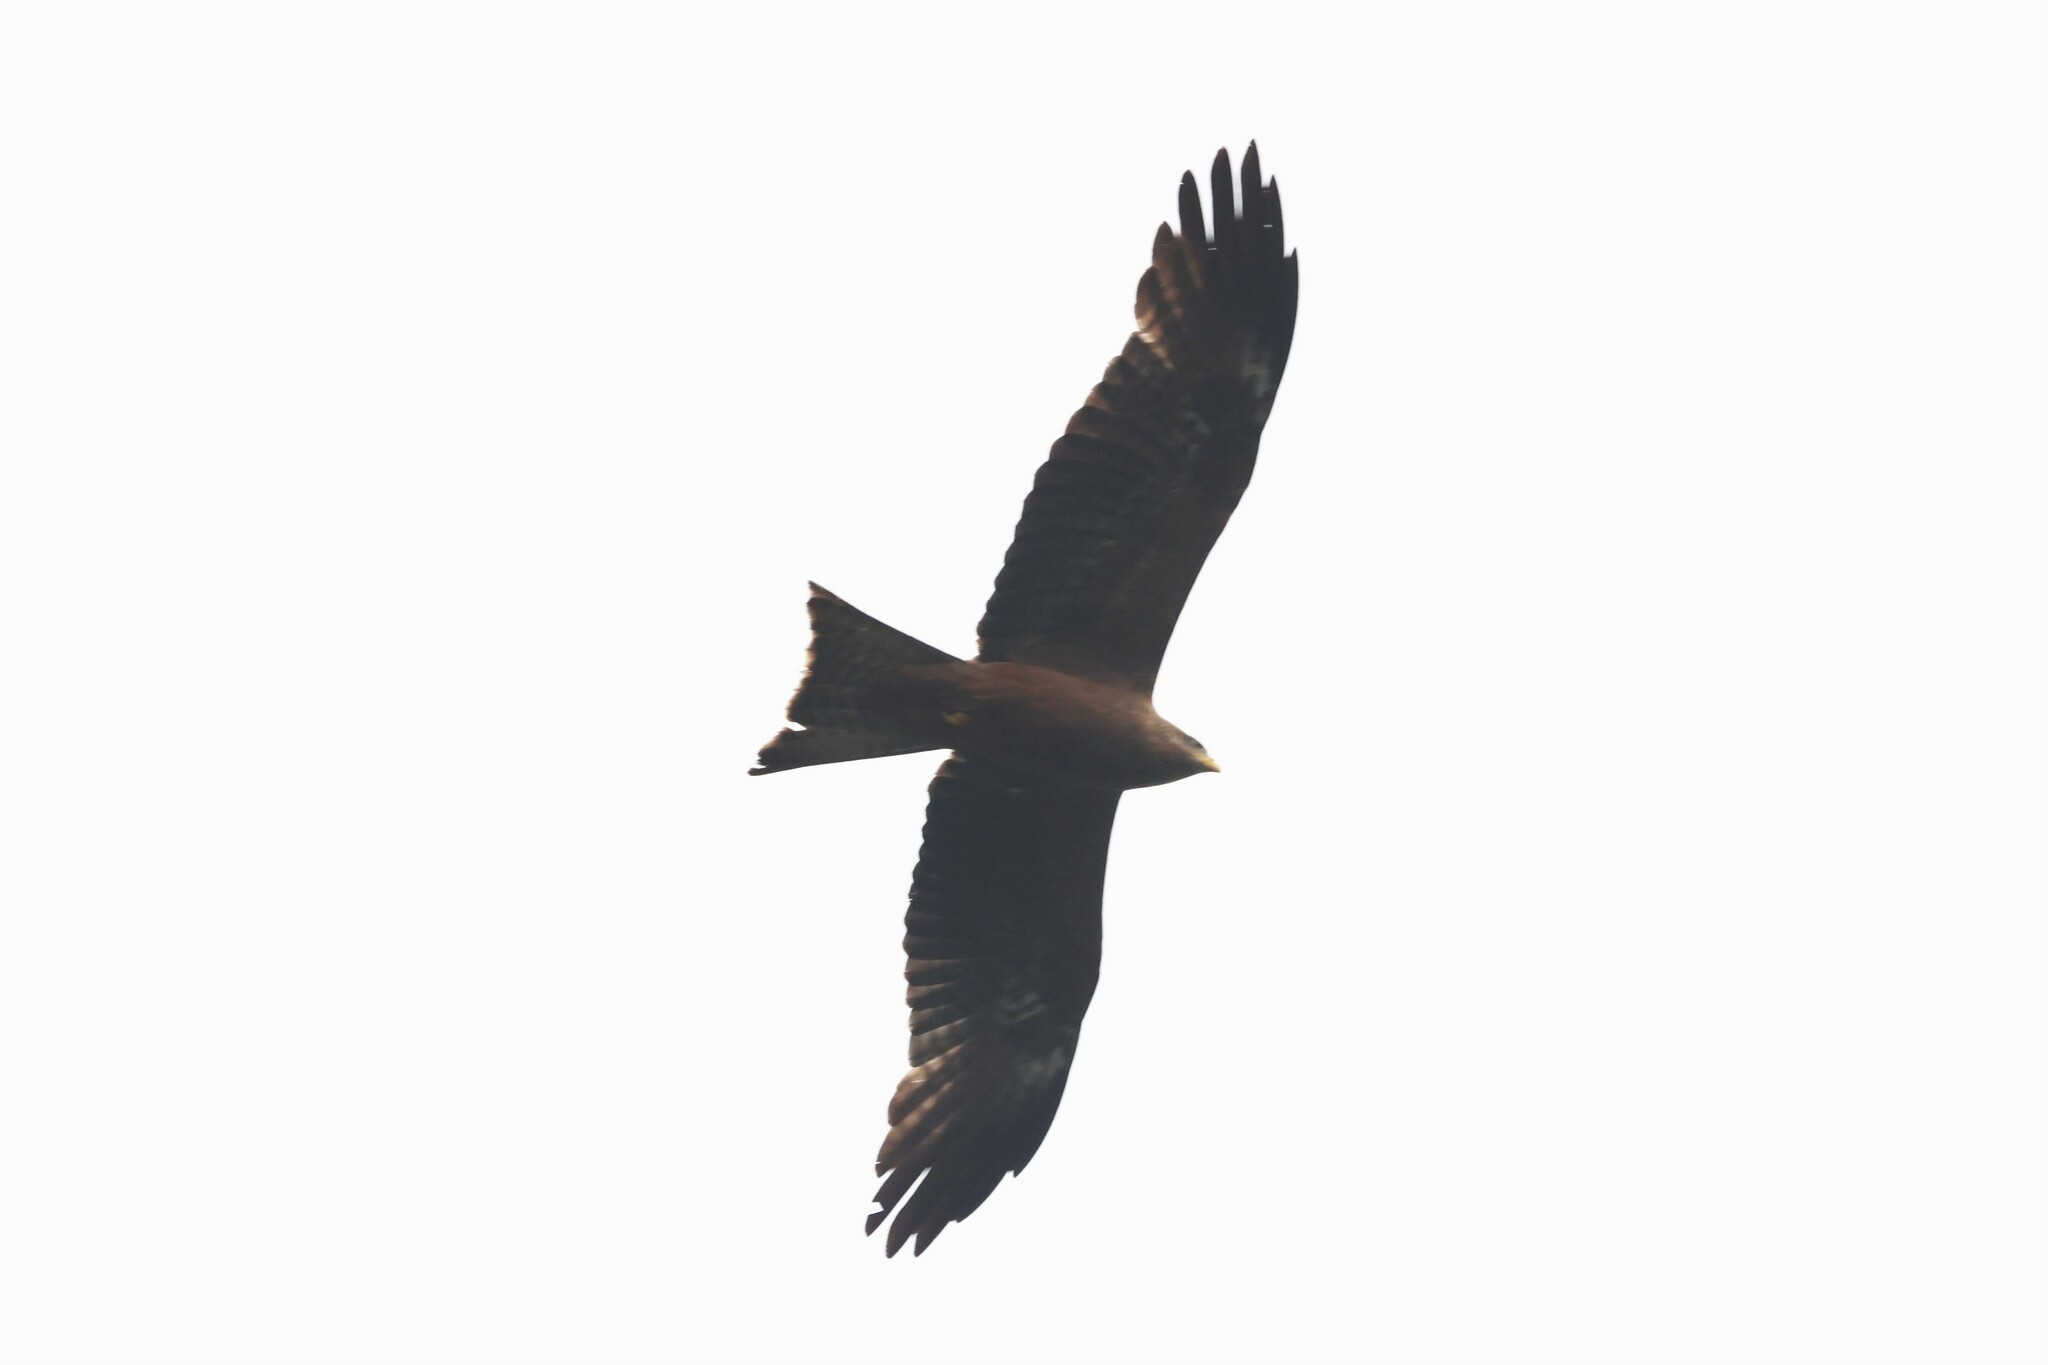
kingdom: Animalia
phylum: Chordata
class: Aves
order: Accipitriformes
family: Accipitridae
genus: Milvus
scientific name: Milvus migrans
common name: Black kite
